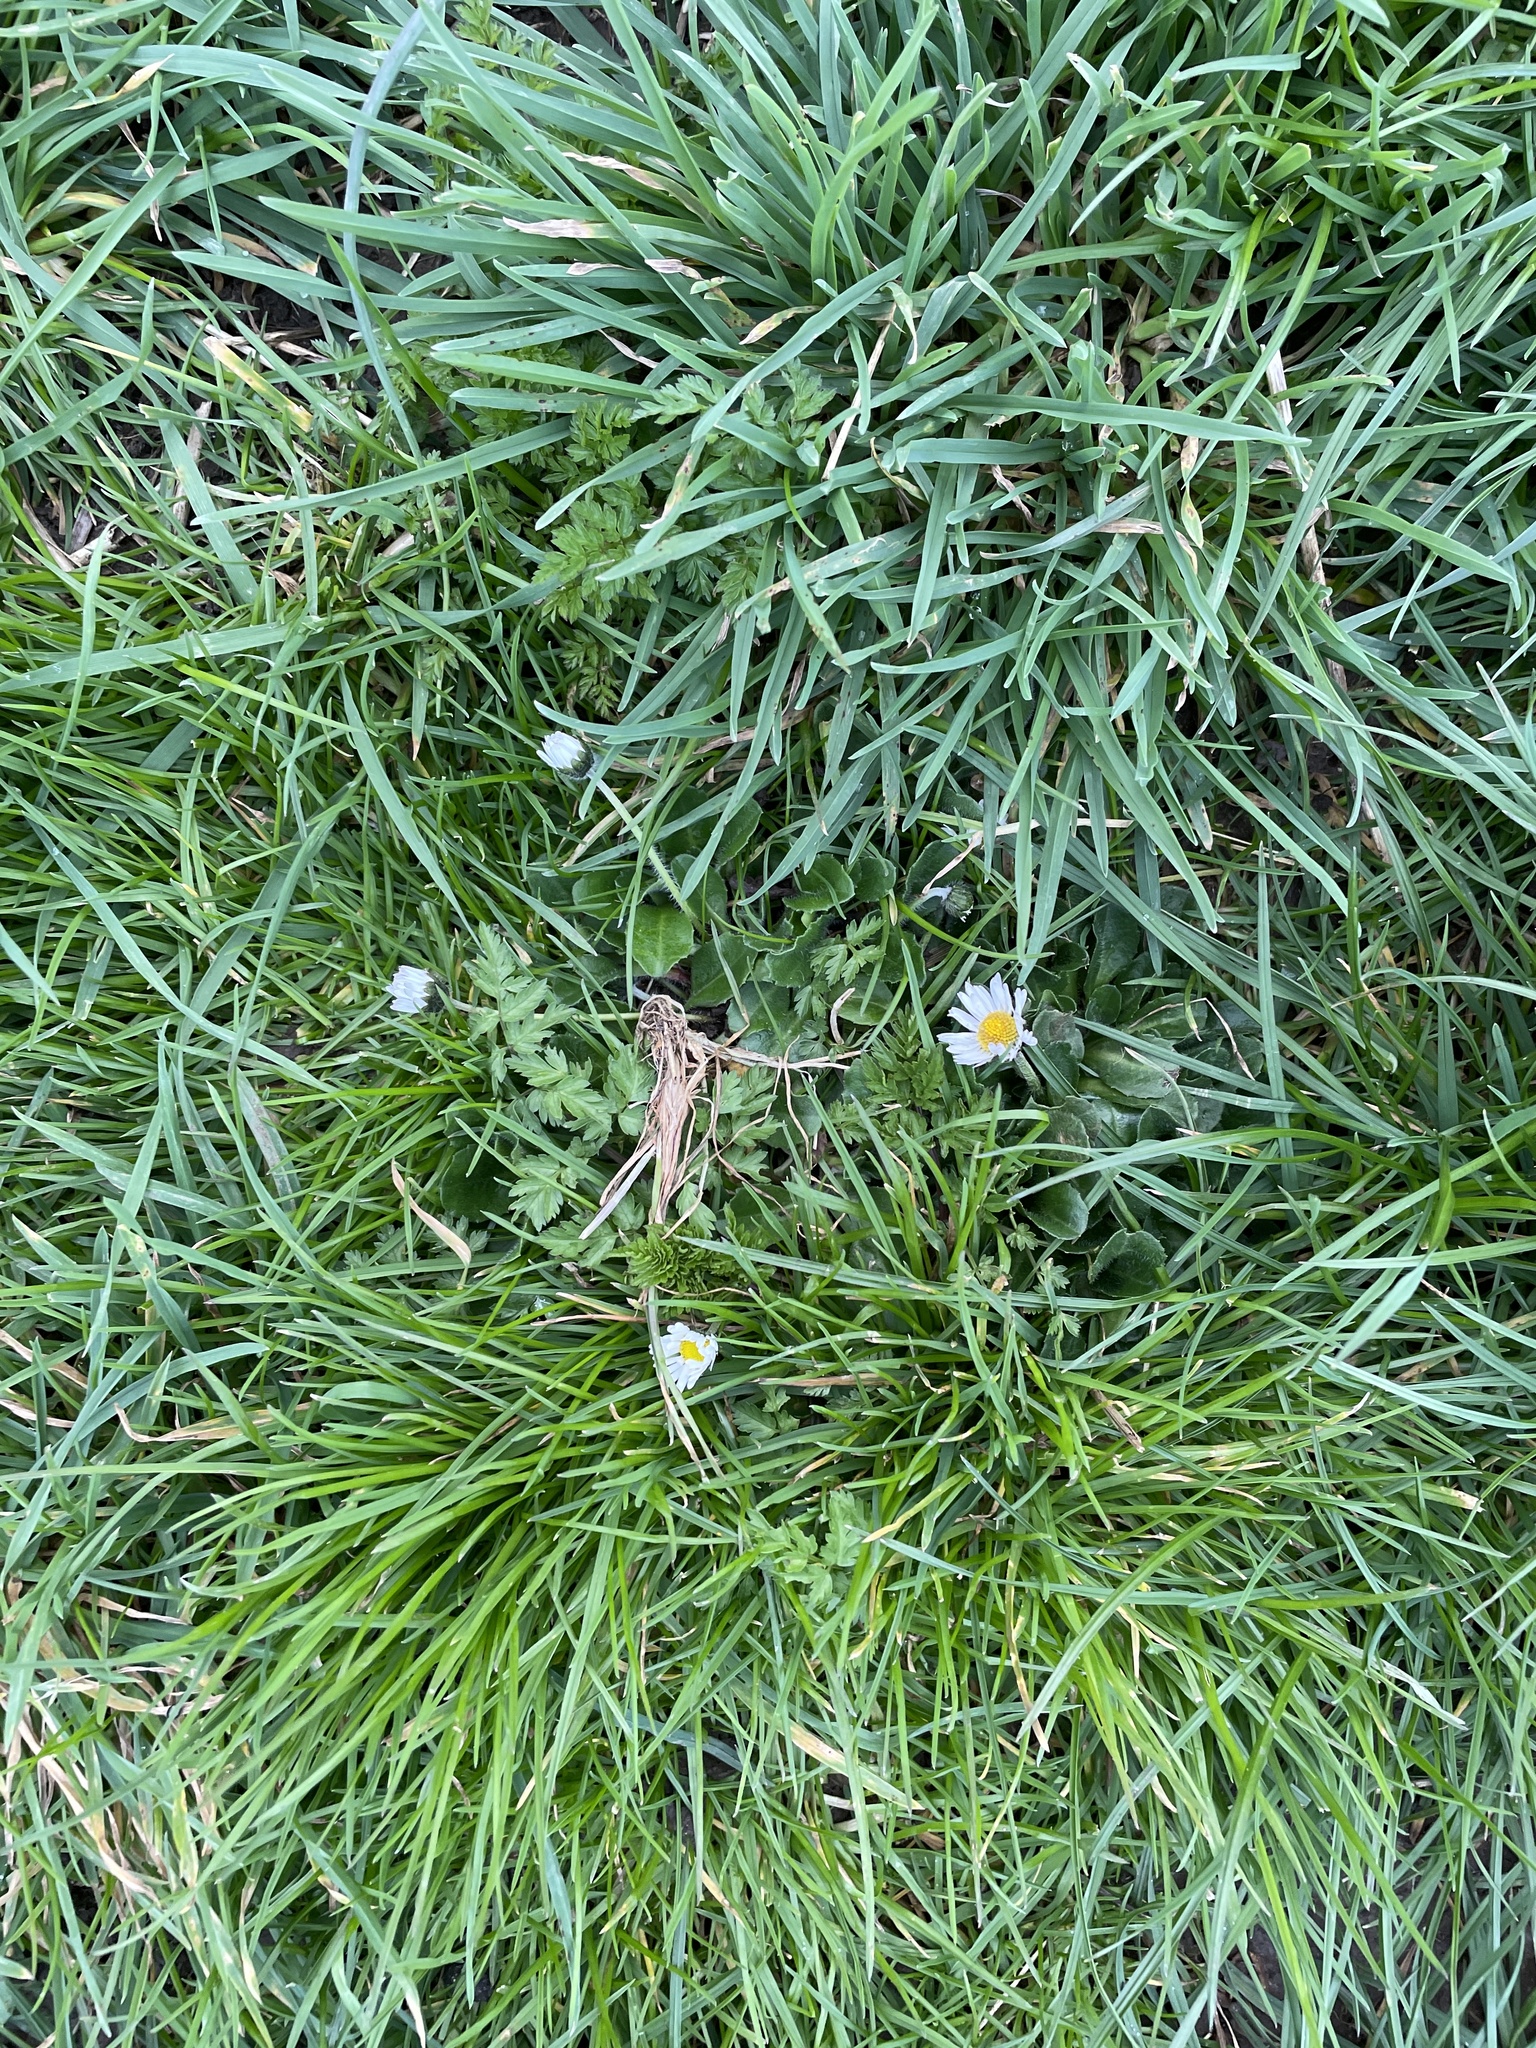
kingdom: Plantae
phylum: Tracheophyta
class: Magnoliopsida
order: Asterales
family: Asteraceae
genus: Bellis
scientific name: Bellis perennis
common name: Lawndaisy
